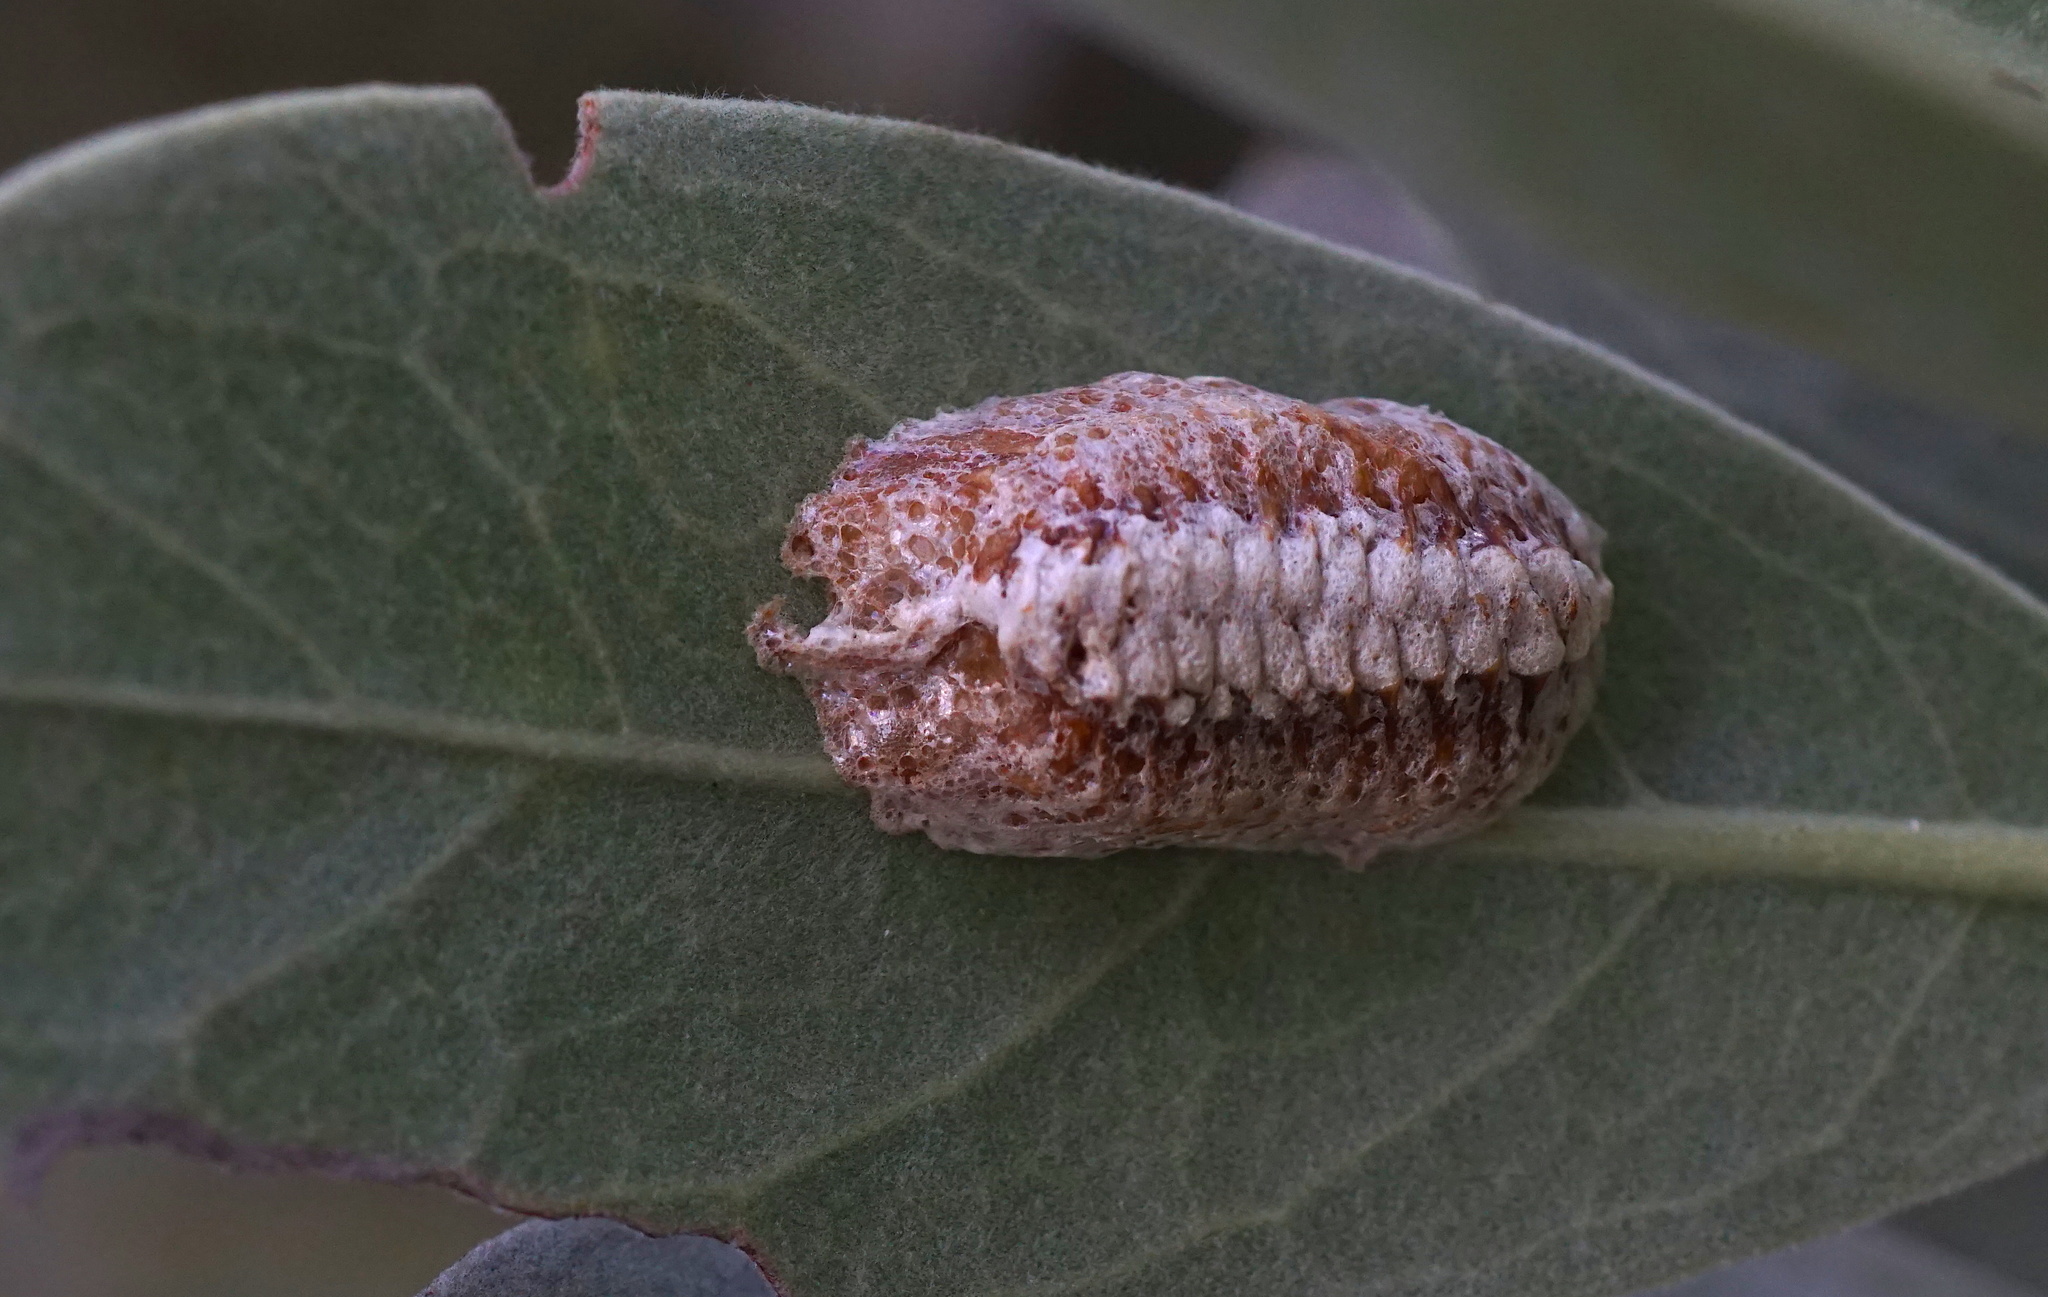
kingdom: Animalia
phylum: Arthropoda
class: Insecta
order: Mantodea
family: Mantidae
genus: Stagmomantis
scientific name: Stagmomantis carolina
